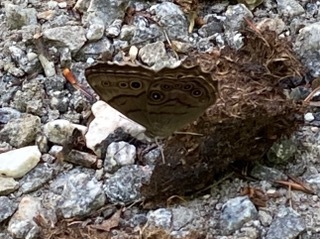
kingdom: Animalia
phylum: Arthropoda
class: Insecta
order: Lepidoptera
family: Nymphalidae
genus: Lethe
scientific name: Lethe anthedon
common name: Northern pearly-eye
